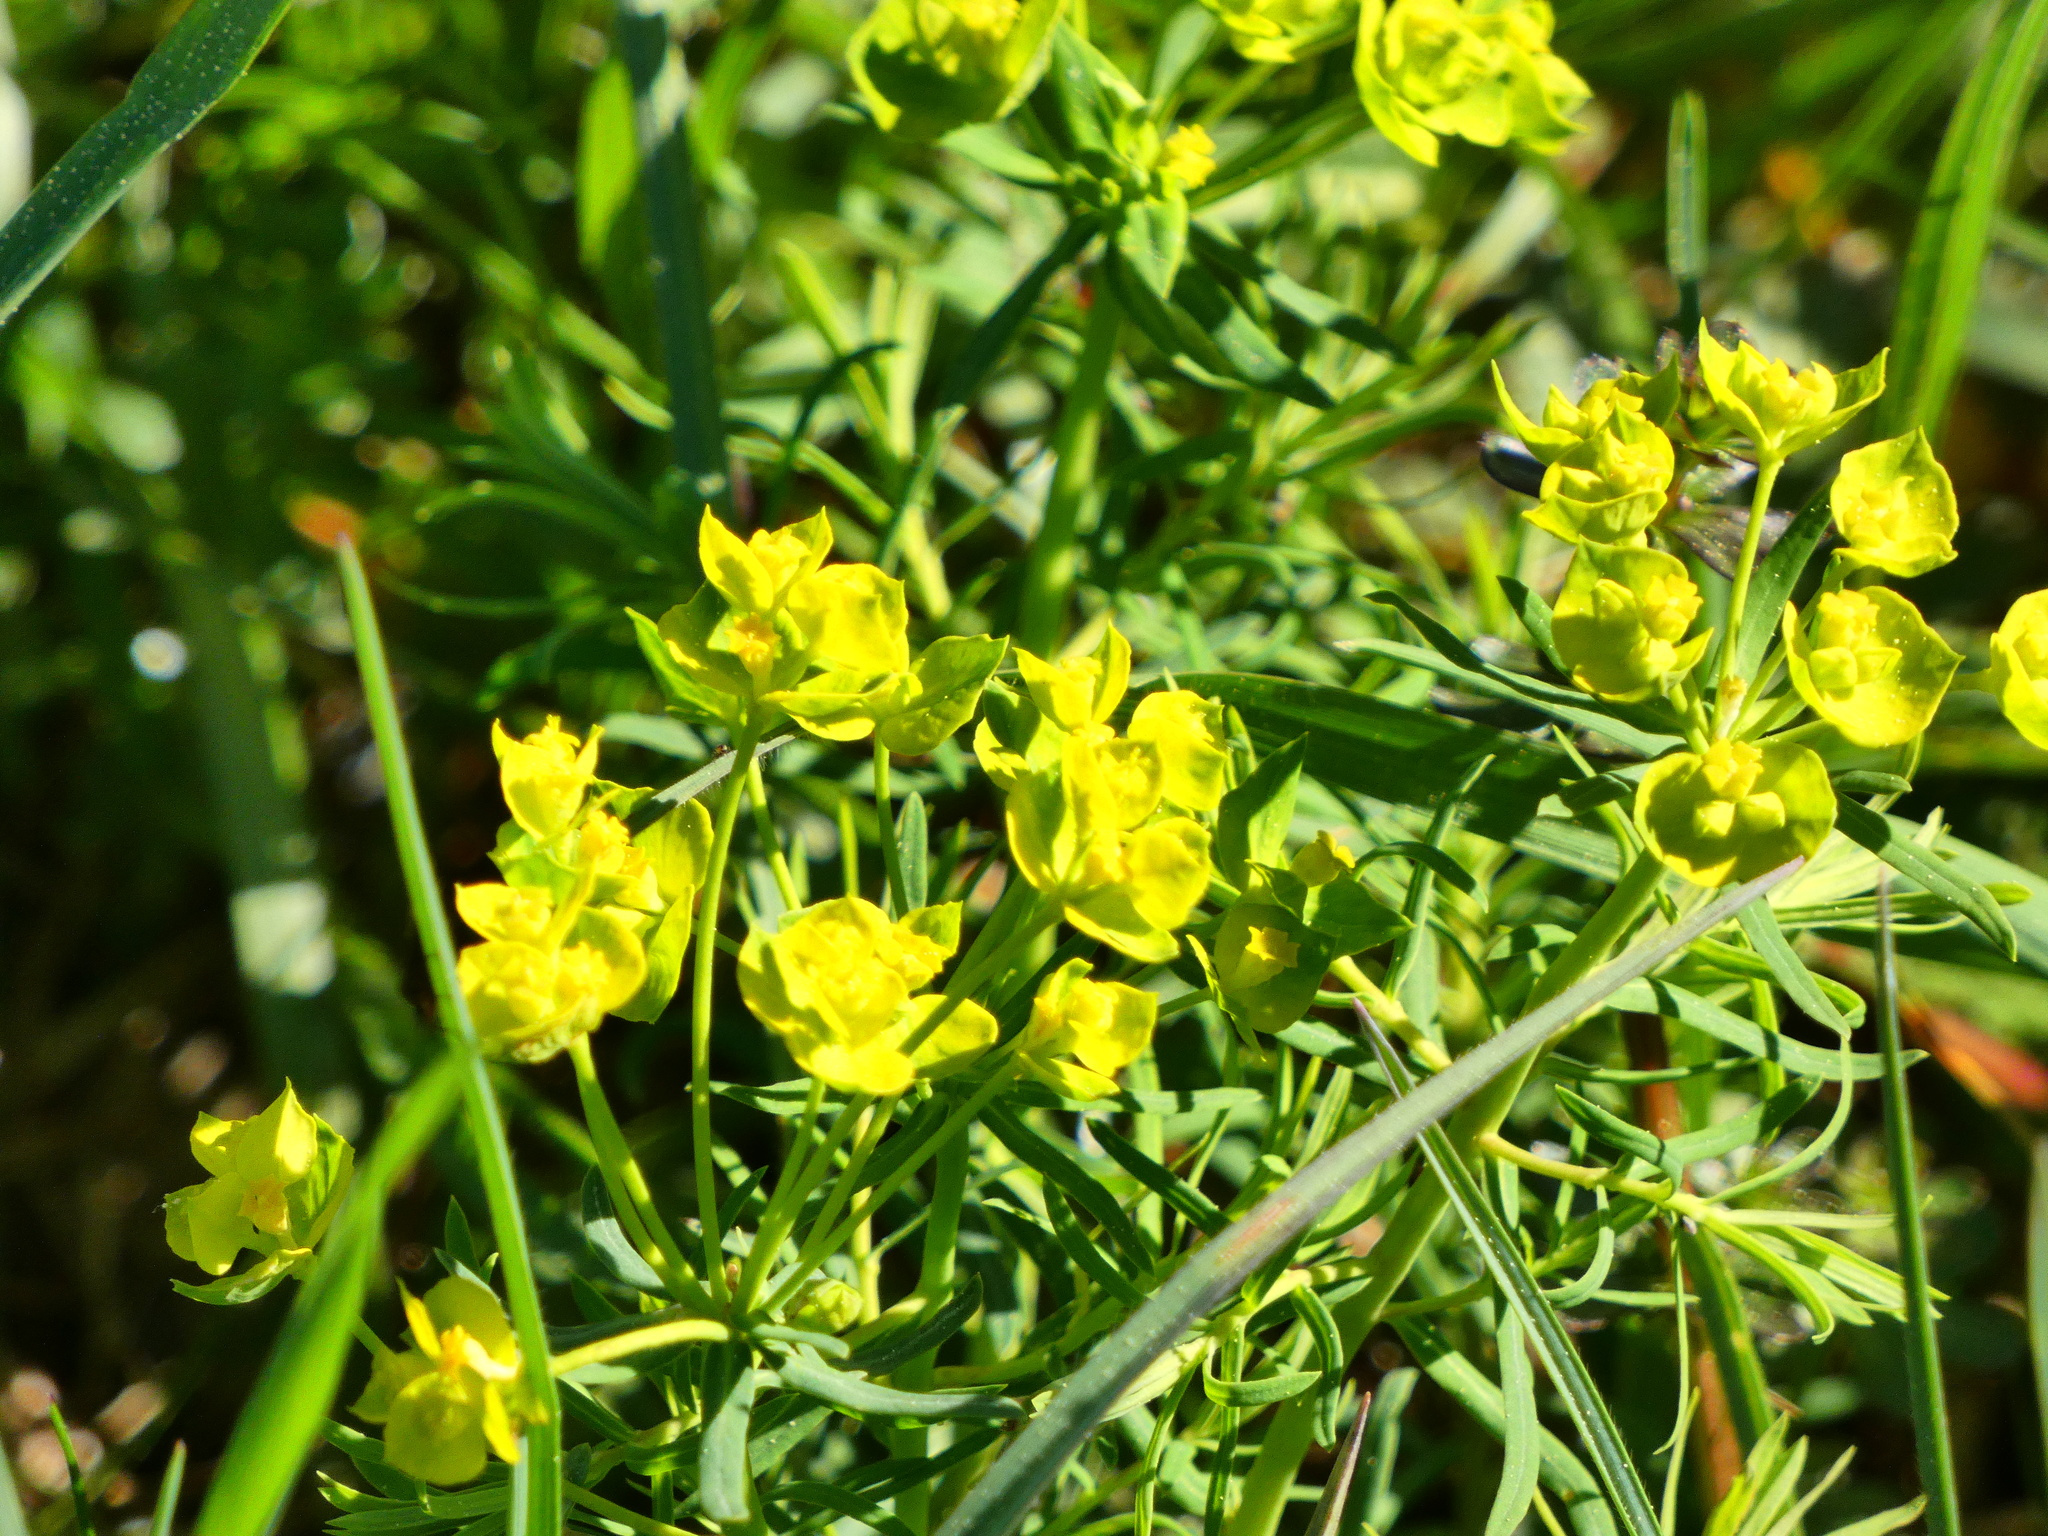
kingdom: Plantae
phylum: Tracheophyta
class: Magnoliopsida
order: Malpighiales
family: Euphorbiaceae
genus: Euphorbia
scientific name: Euphorbia cyparissias
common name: Cypress spurge
